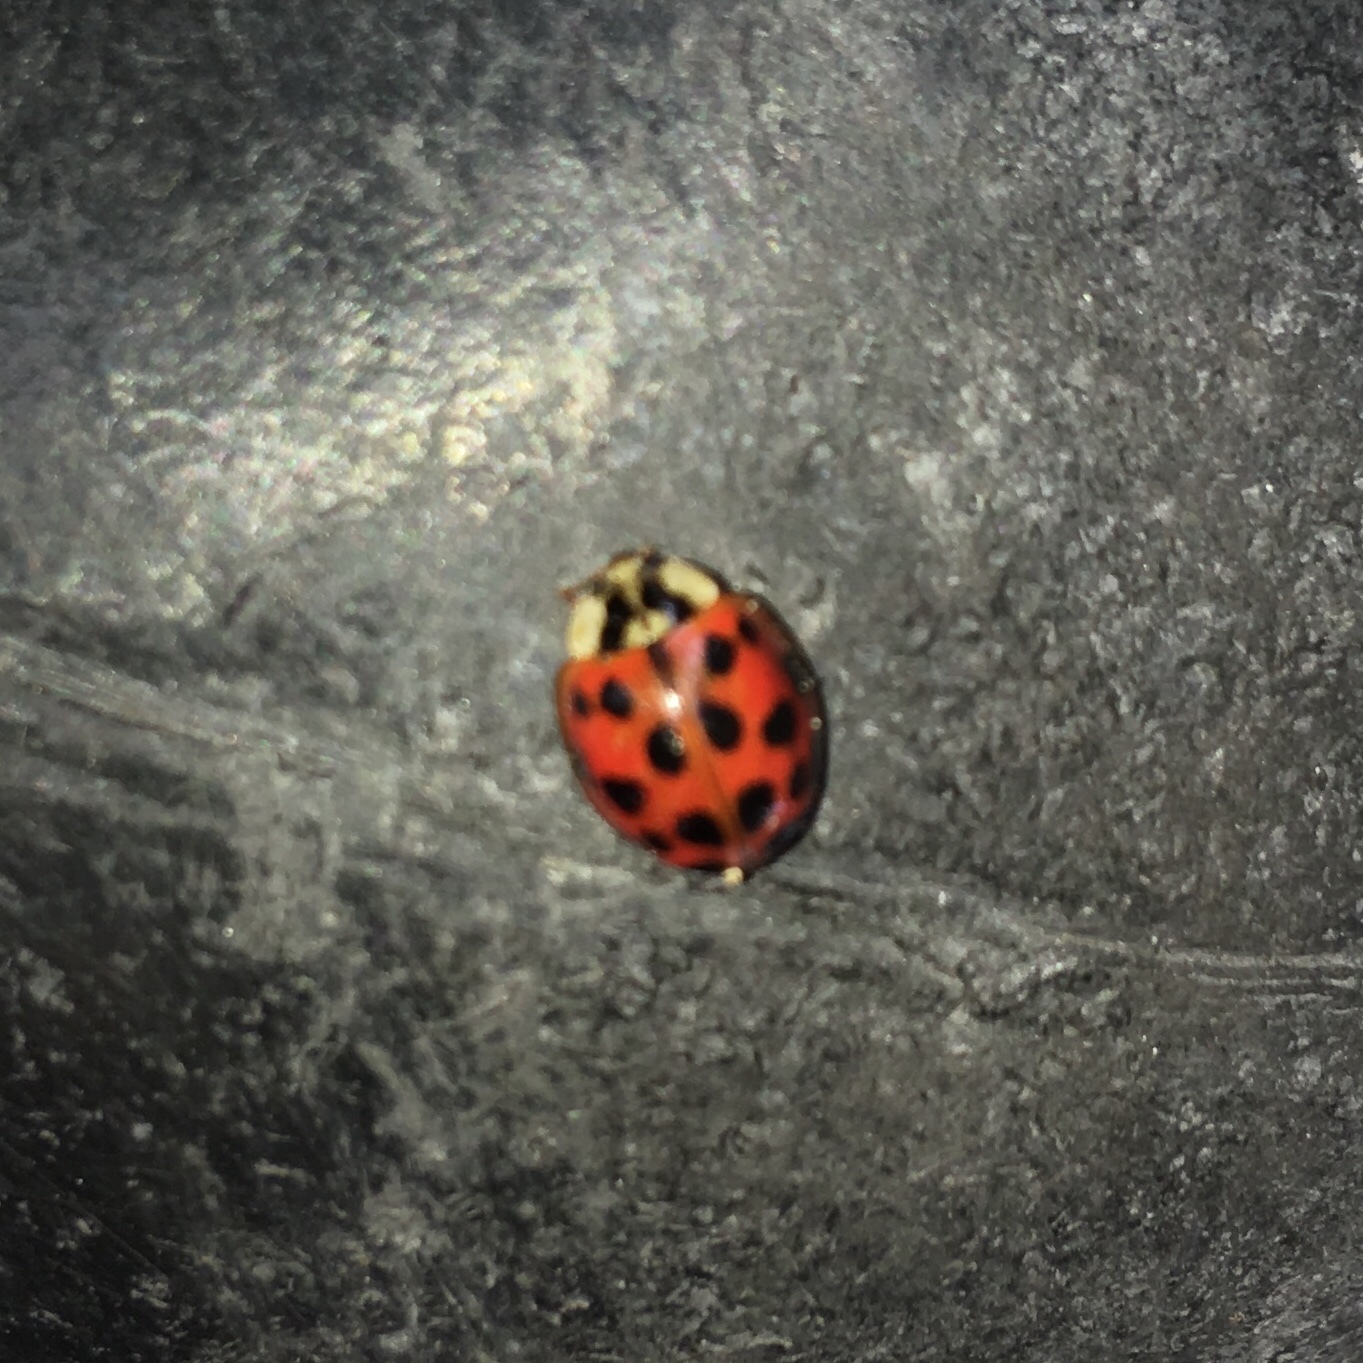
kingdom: Animalia
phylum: Arthropoda
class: Insecta
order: Coleoptera
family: Coccinellidae
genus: Harmonia
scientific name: Harmonia axyridis
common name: Harlequin ladybird
